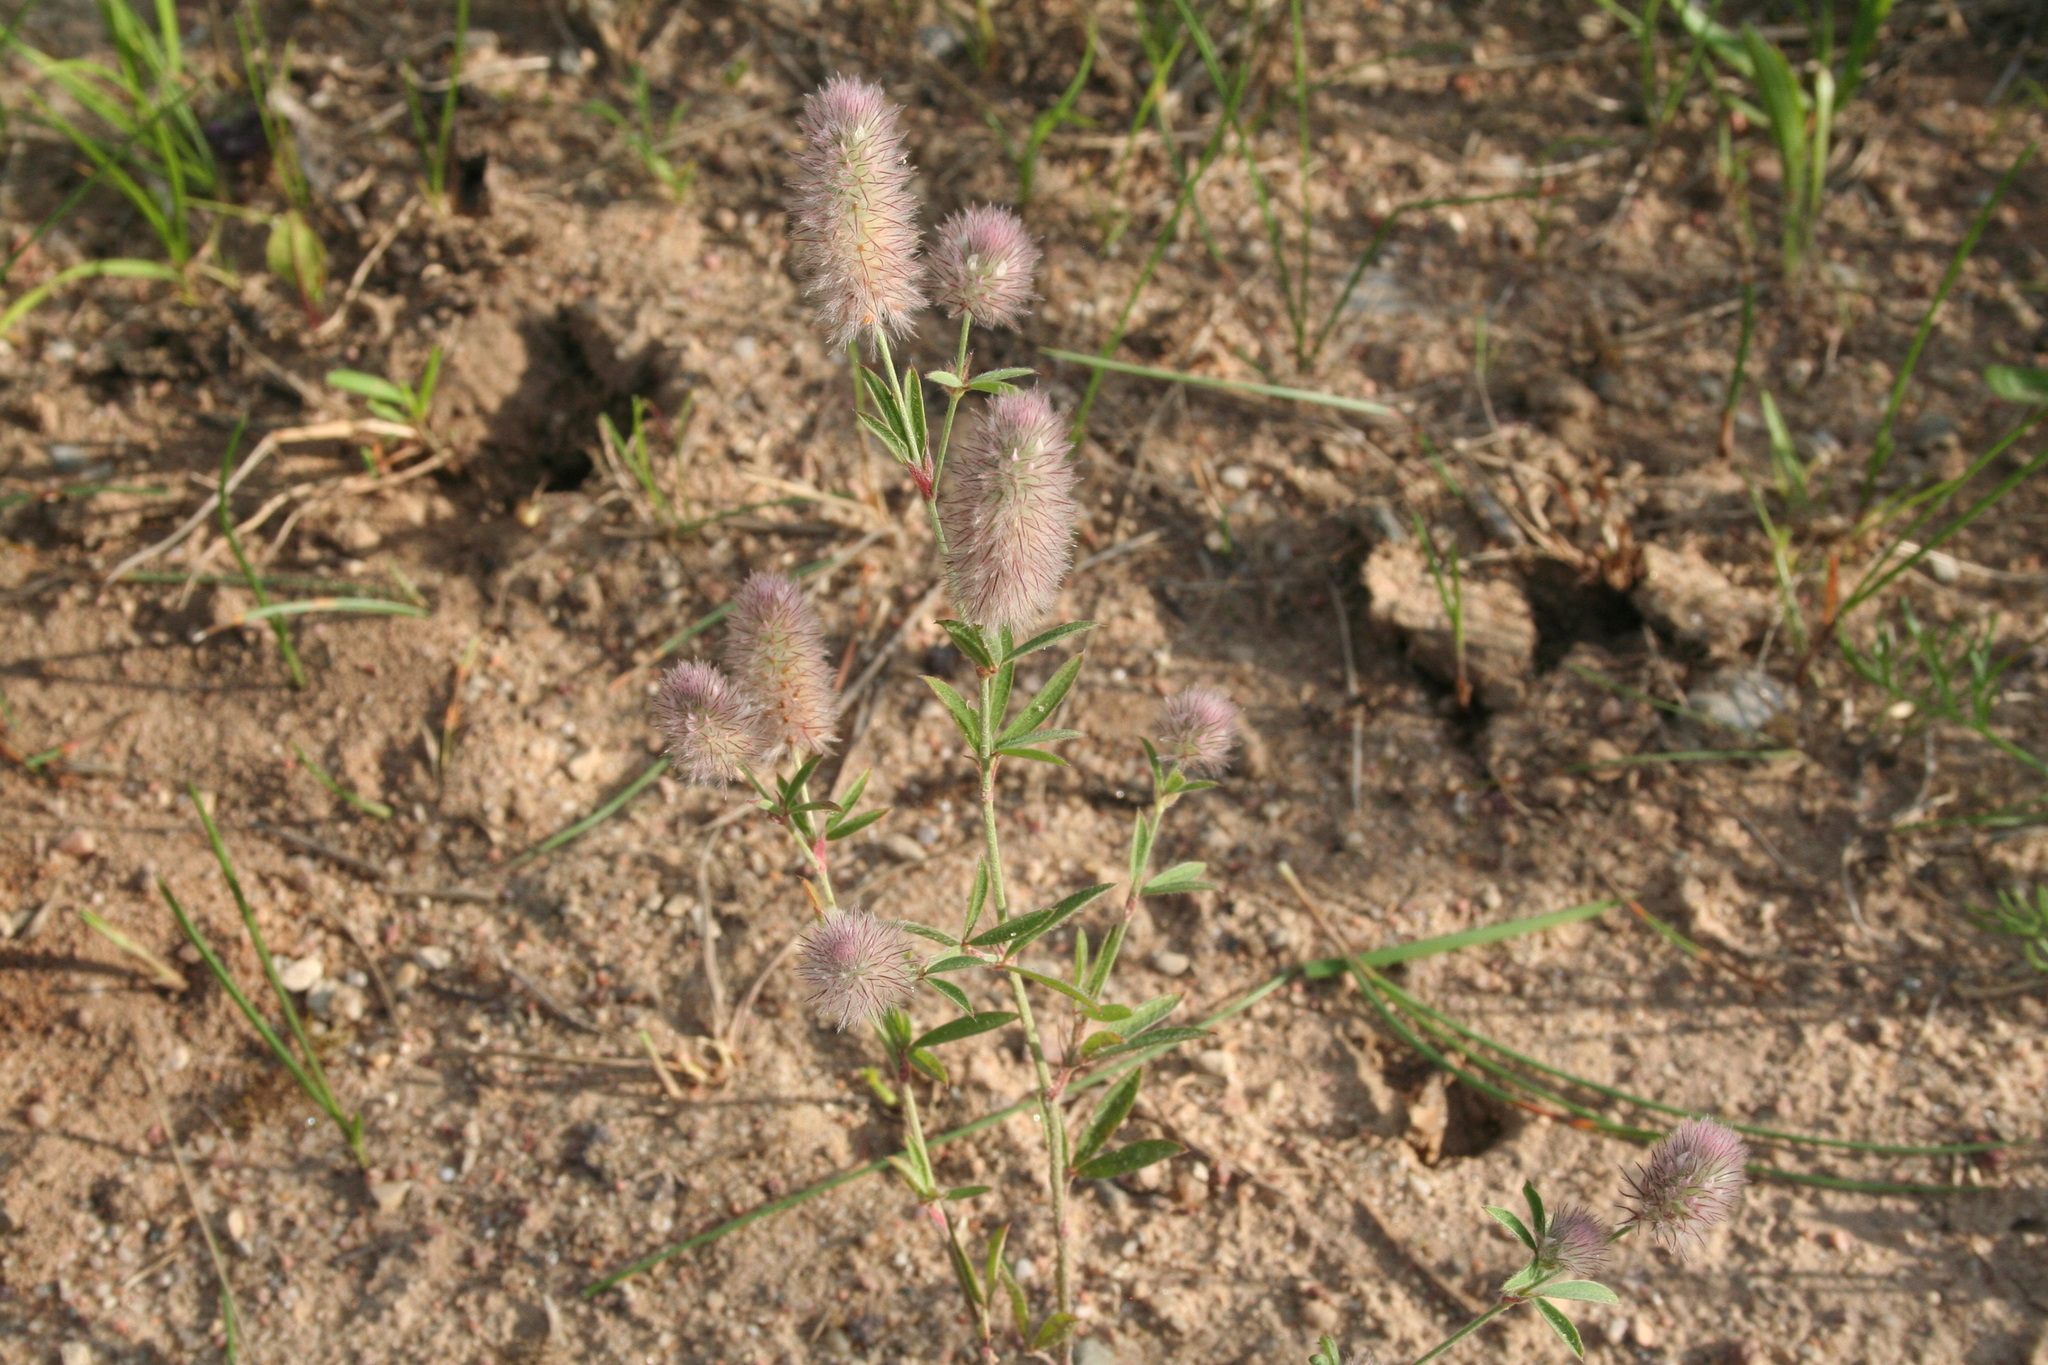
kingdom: Plantae
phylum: Tracheophyta
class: Magnoliopsida
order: Fabales
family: Fabaceae
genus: Trifolium
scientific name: Trifolium arvense
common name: Hare's-foot clover
